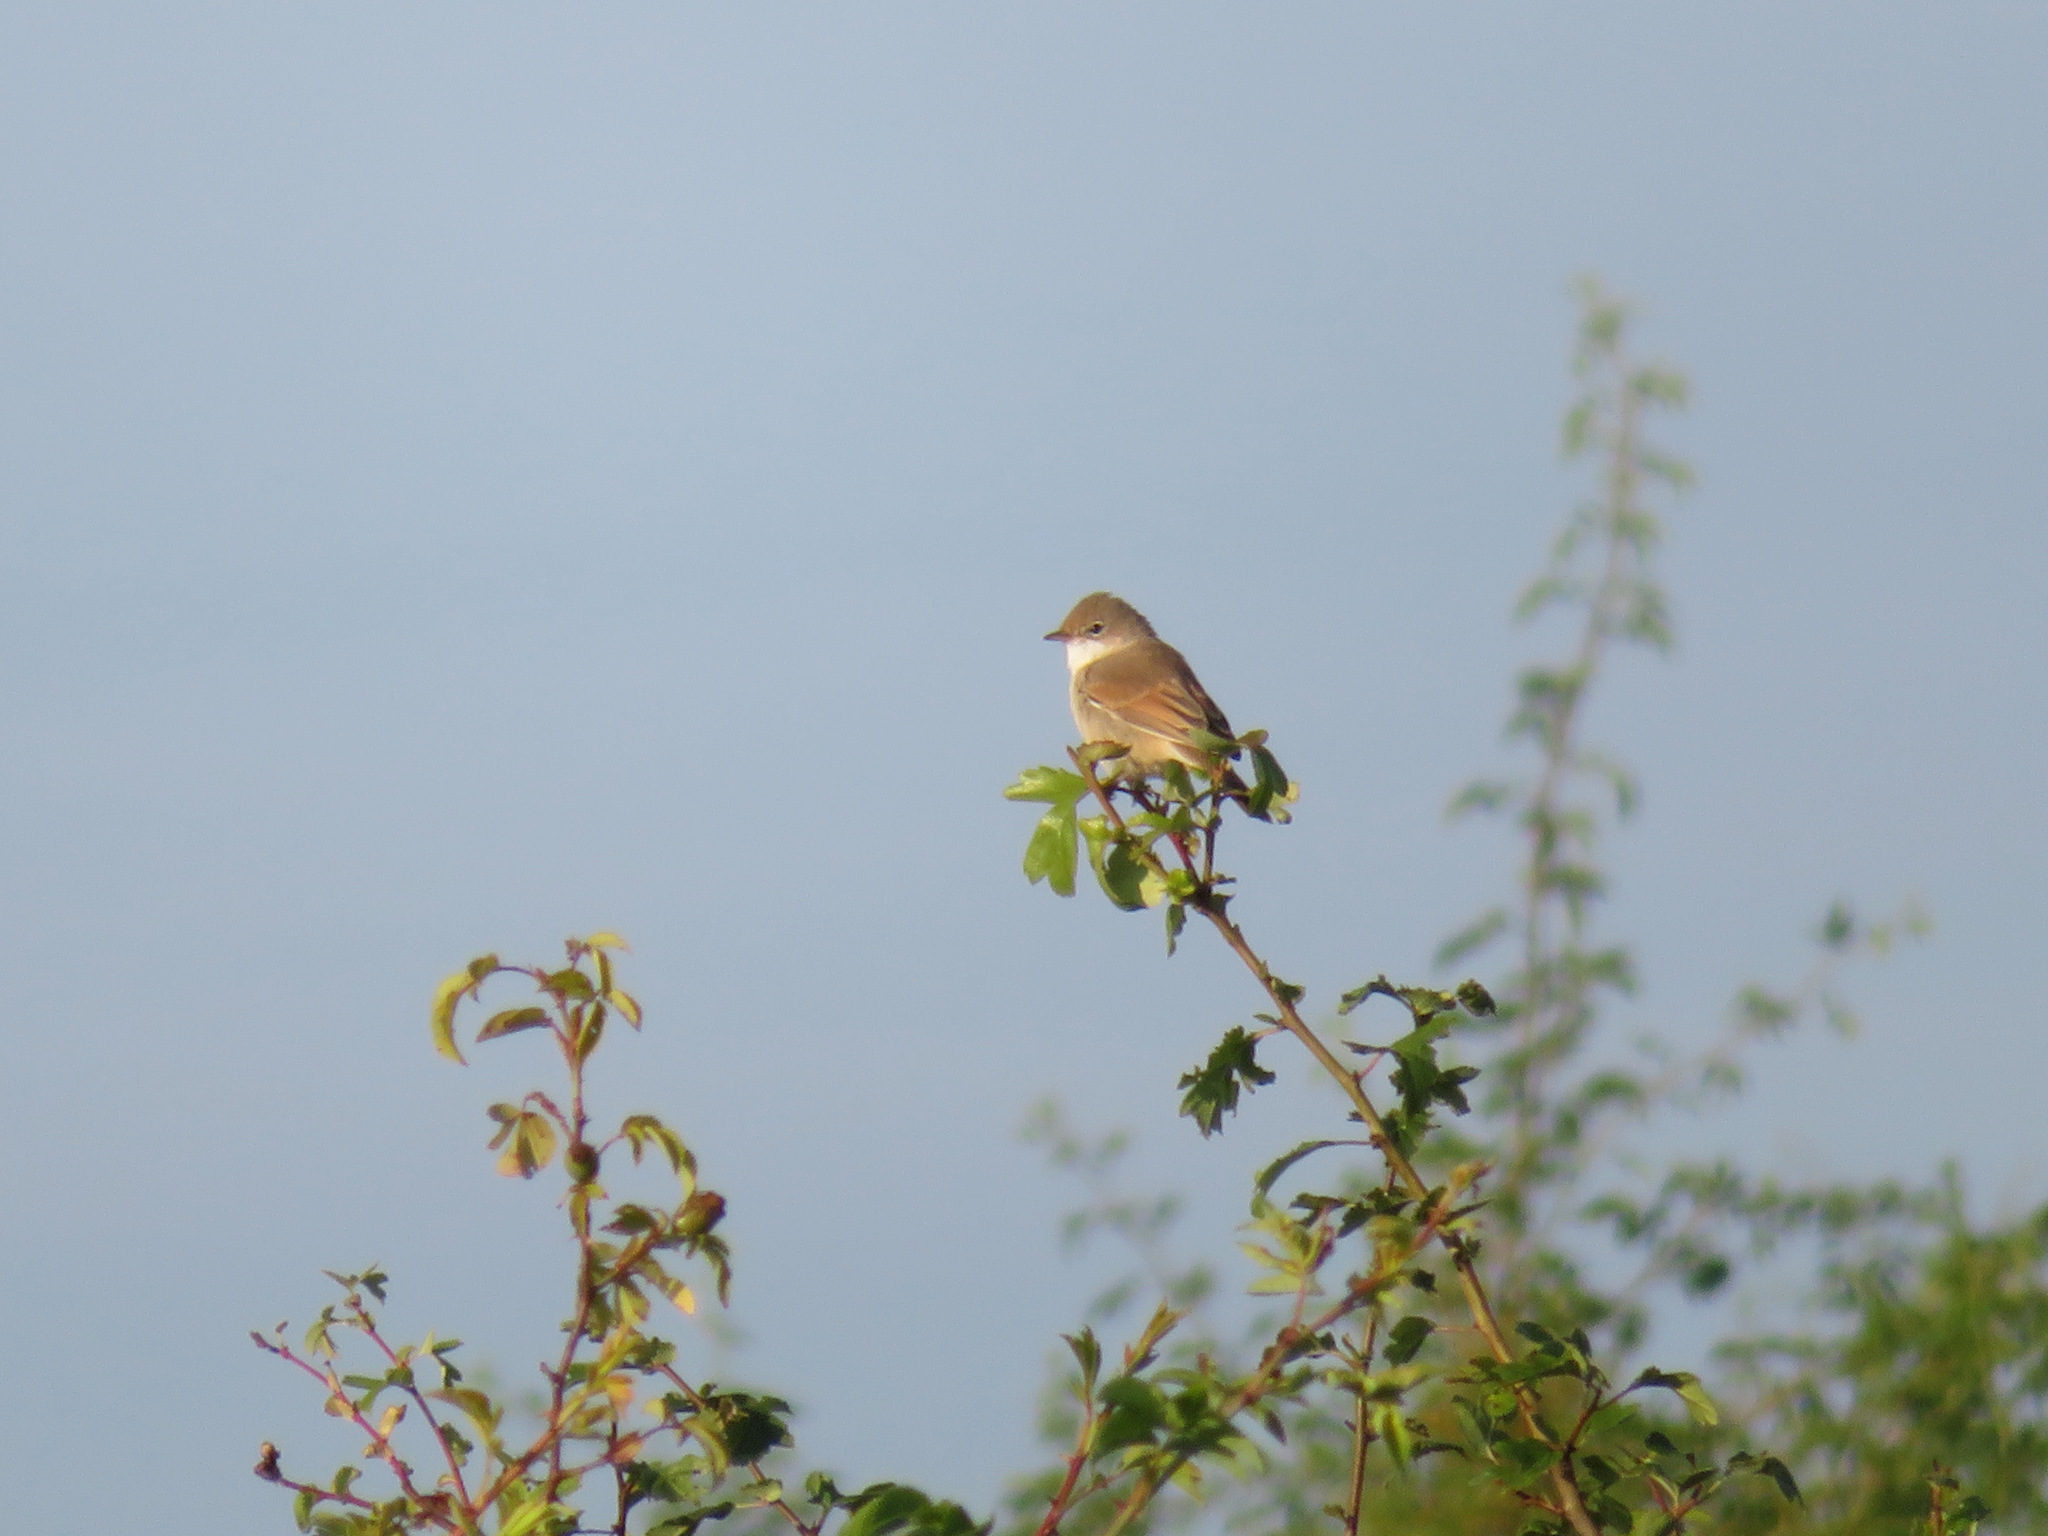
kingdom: Animalia
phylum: Chordata
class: Aves
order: Passeriformes
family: Sylviidae
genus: Sylvia
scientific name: Sylvia communis
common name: Common whitethroat
